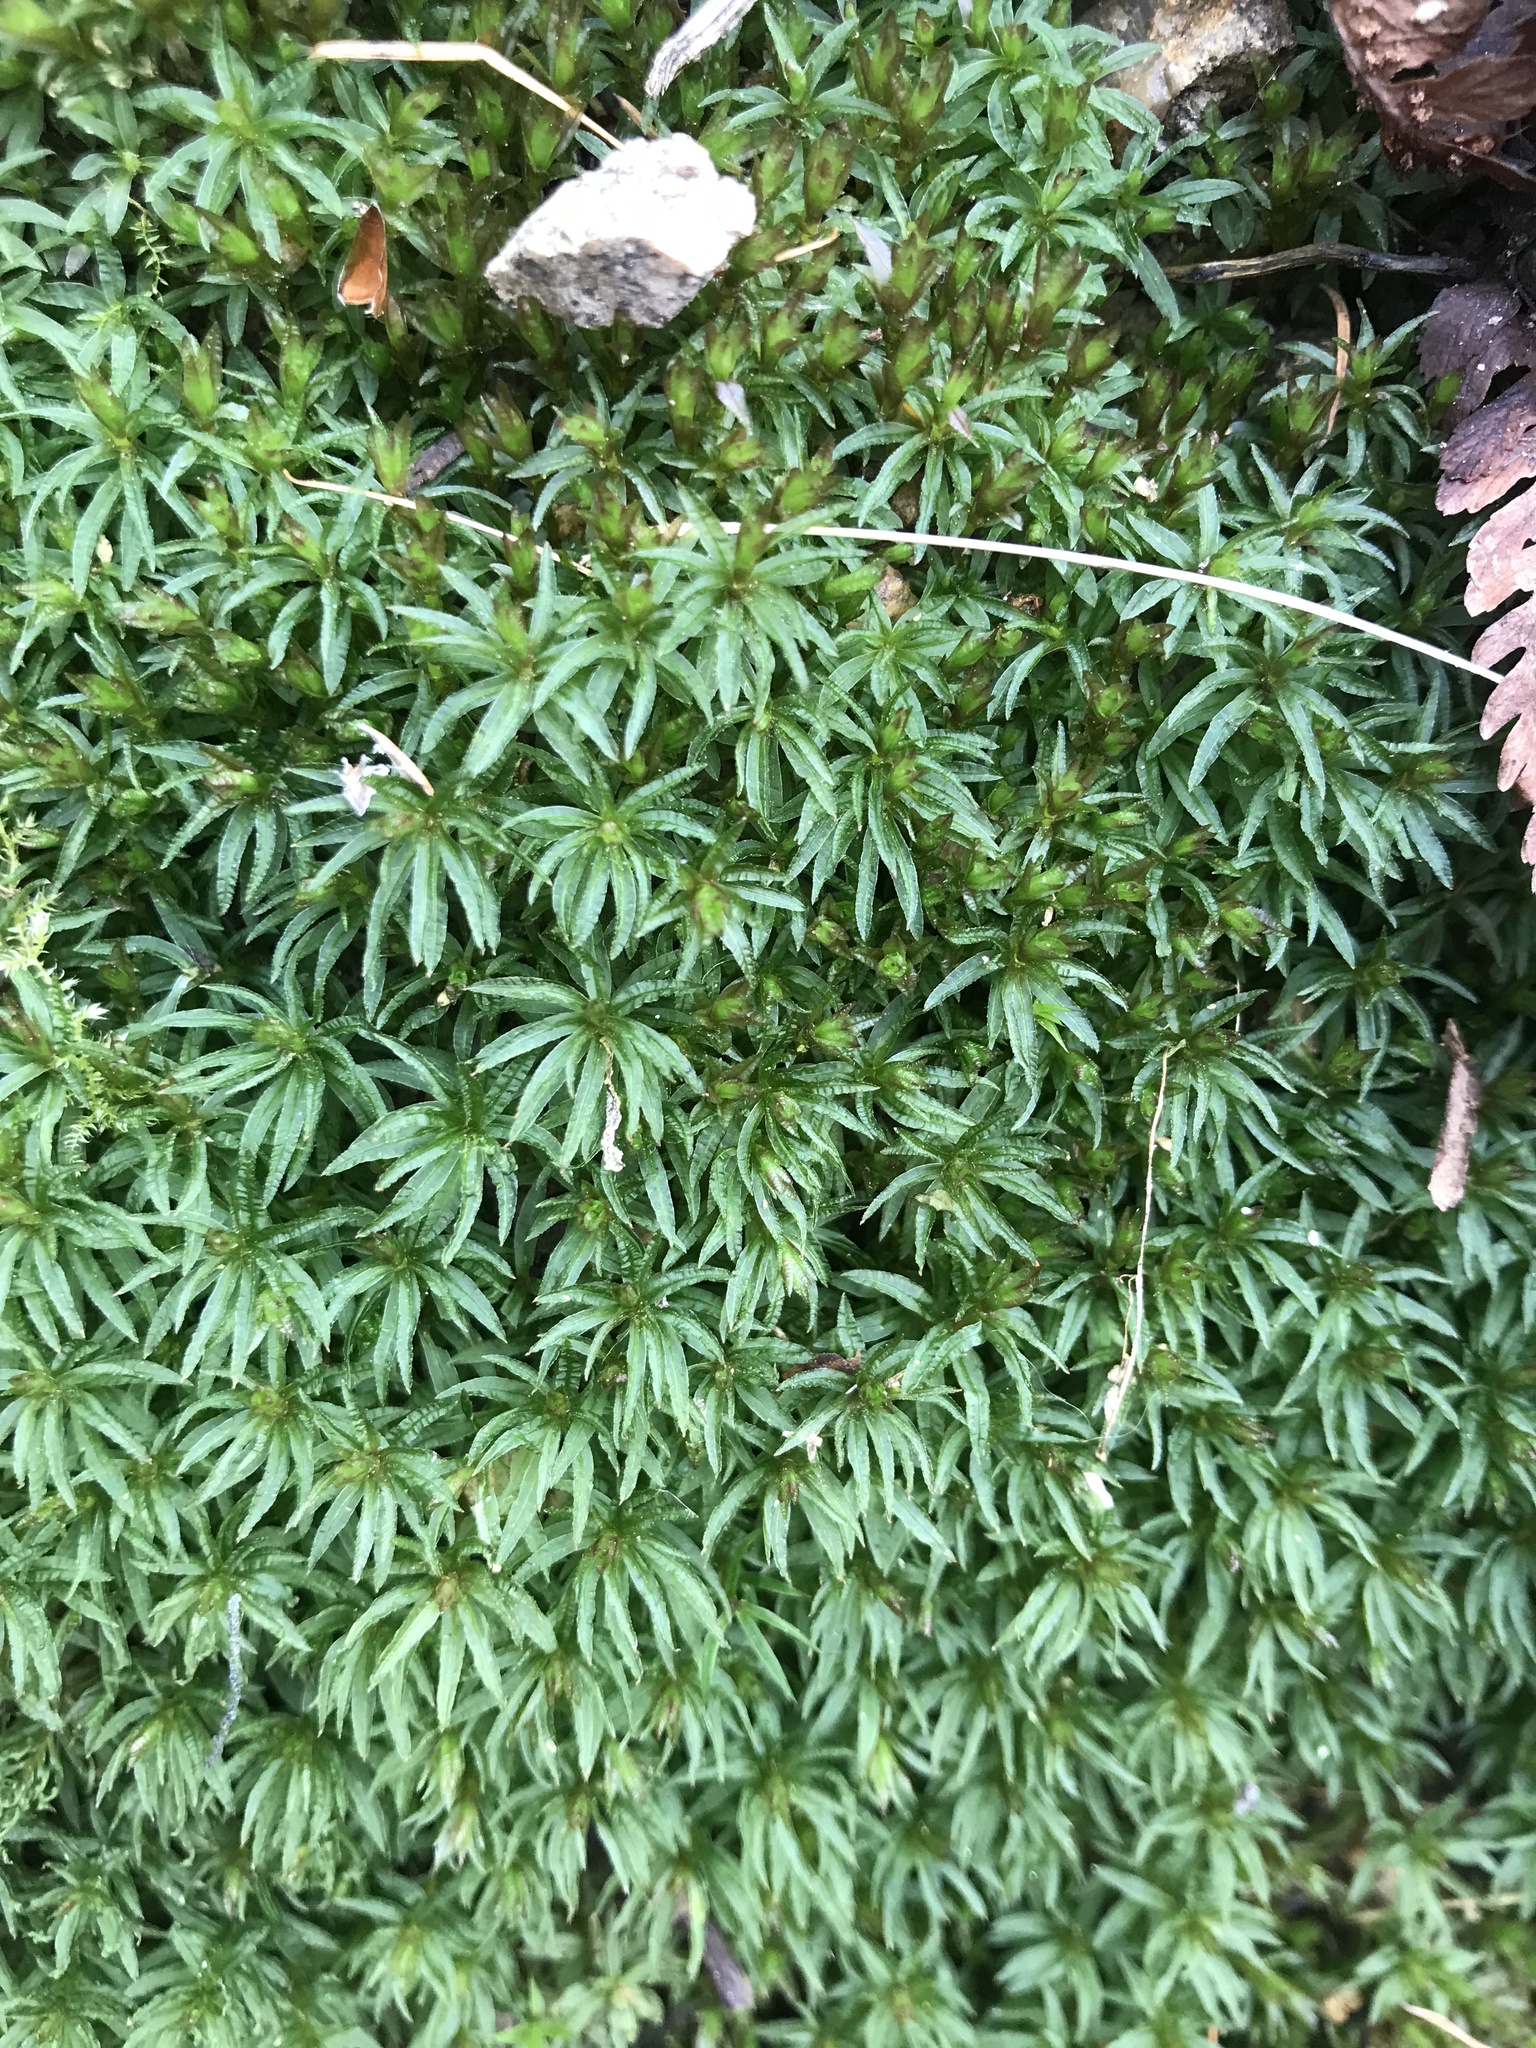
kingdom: Plantae
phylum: Bryophyta
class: Polytrichopsida
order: Polytrichales
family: Polytrichaceae
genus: Atrichum
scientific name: Atrichum undulatum
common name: Common smoothcap
